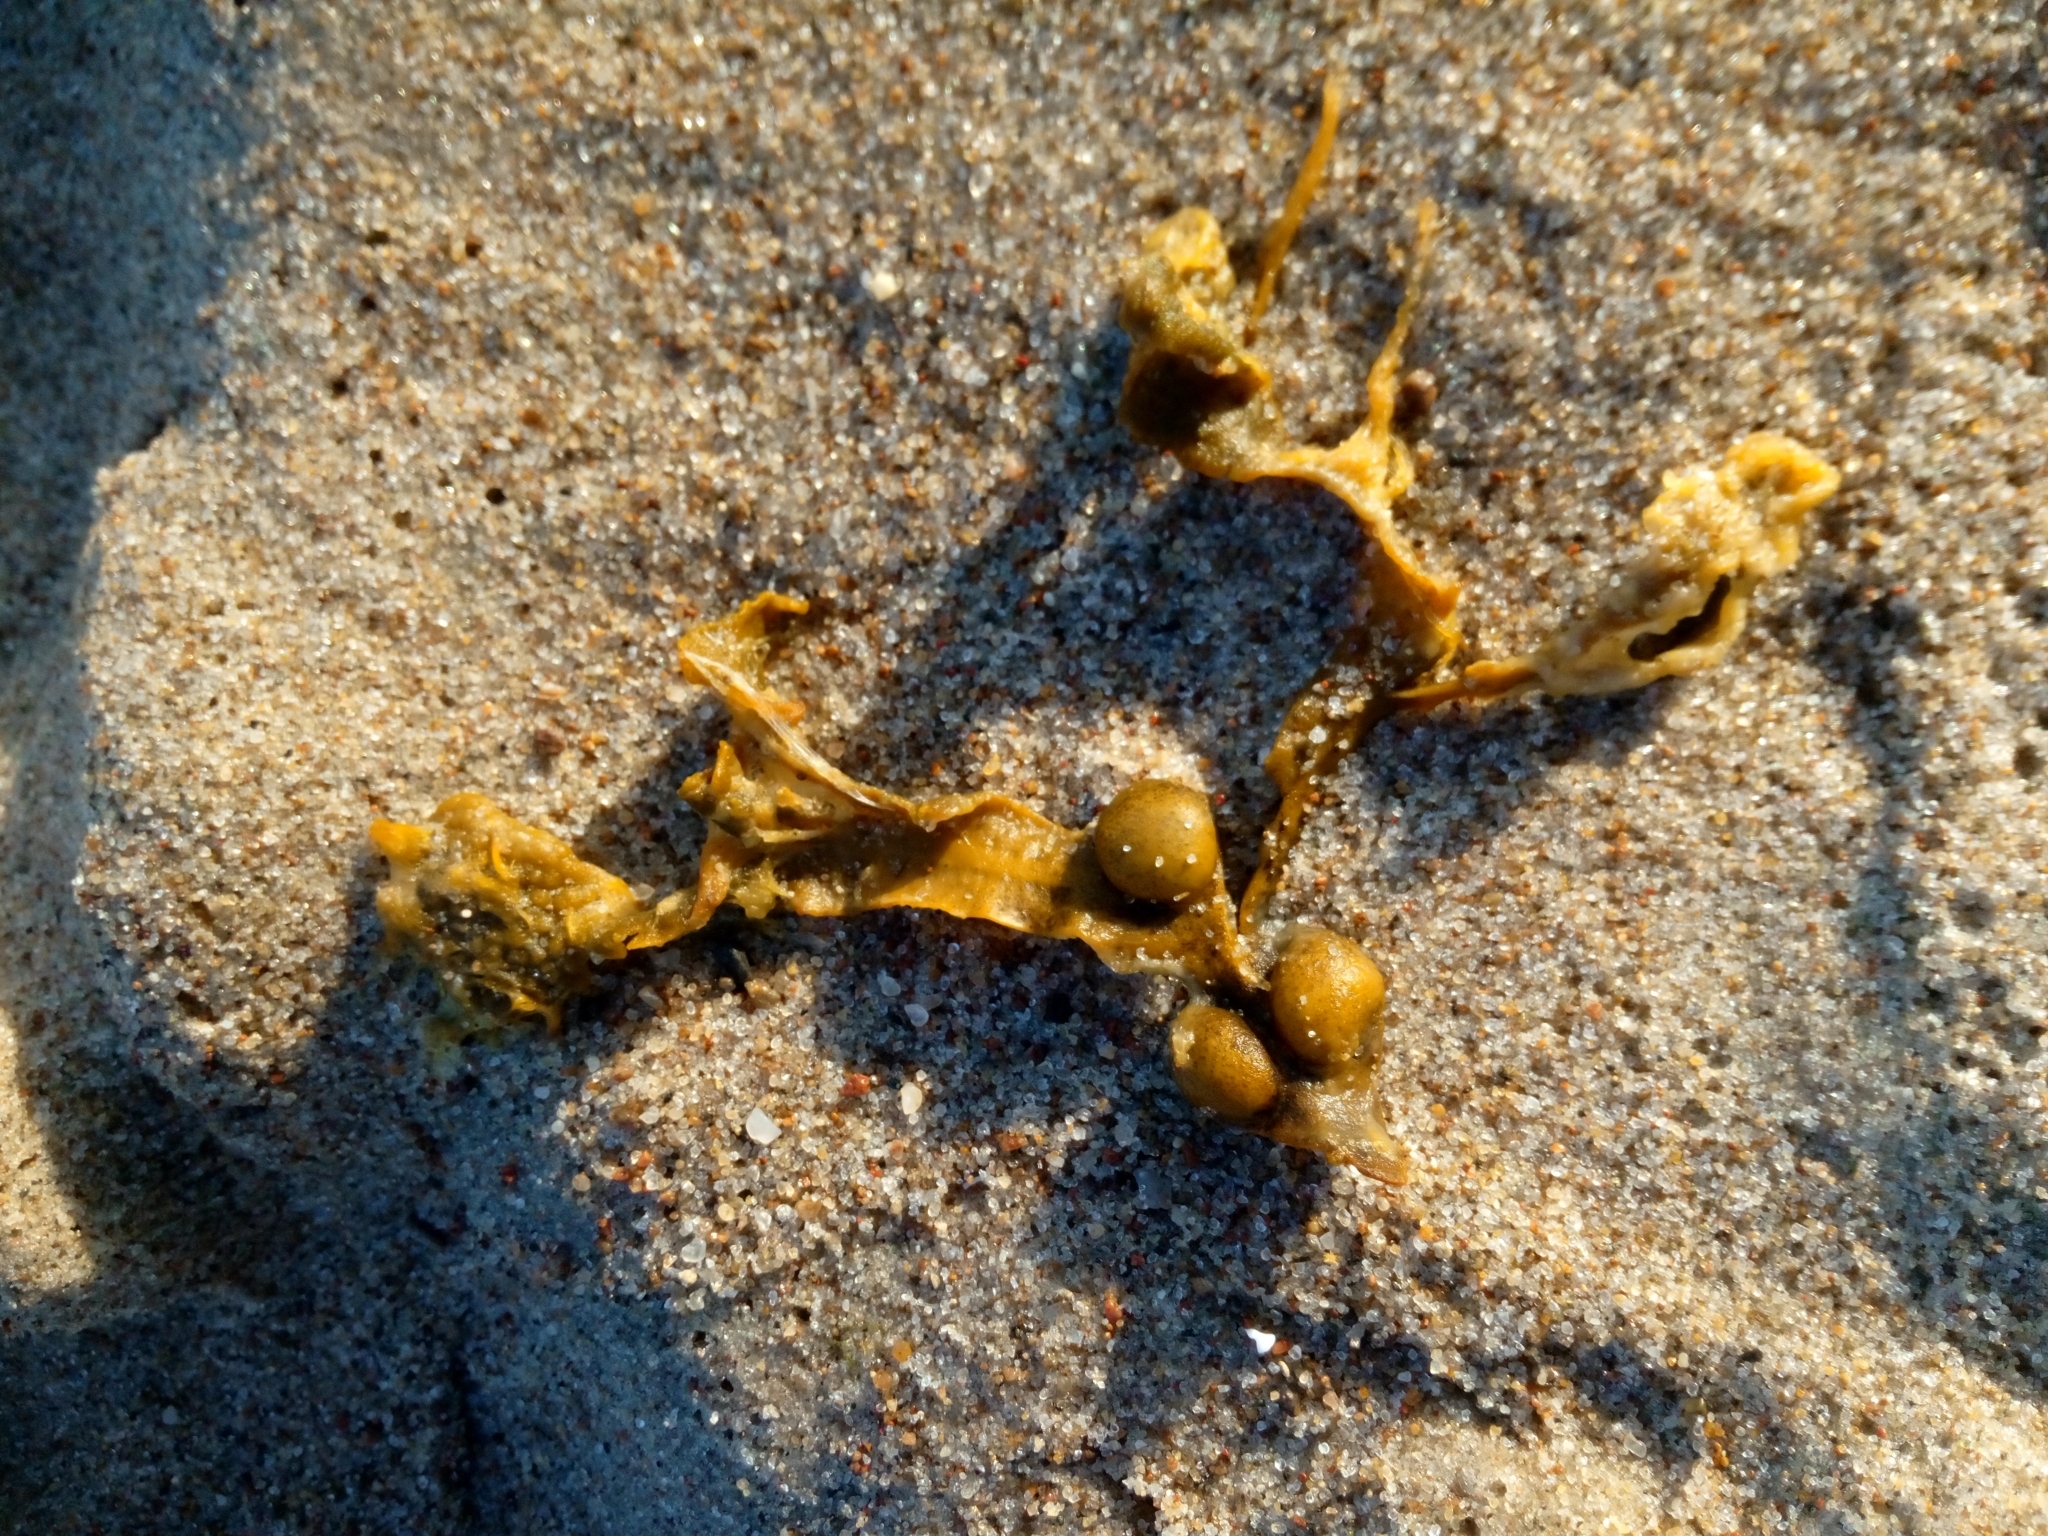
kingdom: Chromista
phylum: Ochrophyta
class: Phaeophyceae
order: Fucales
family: Fucaceae
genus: Fucus
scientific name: Fucus vesiculosus
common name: Bladder wrack
